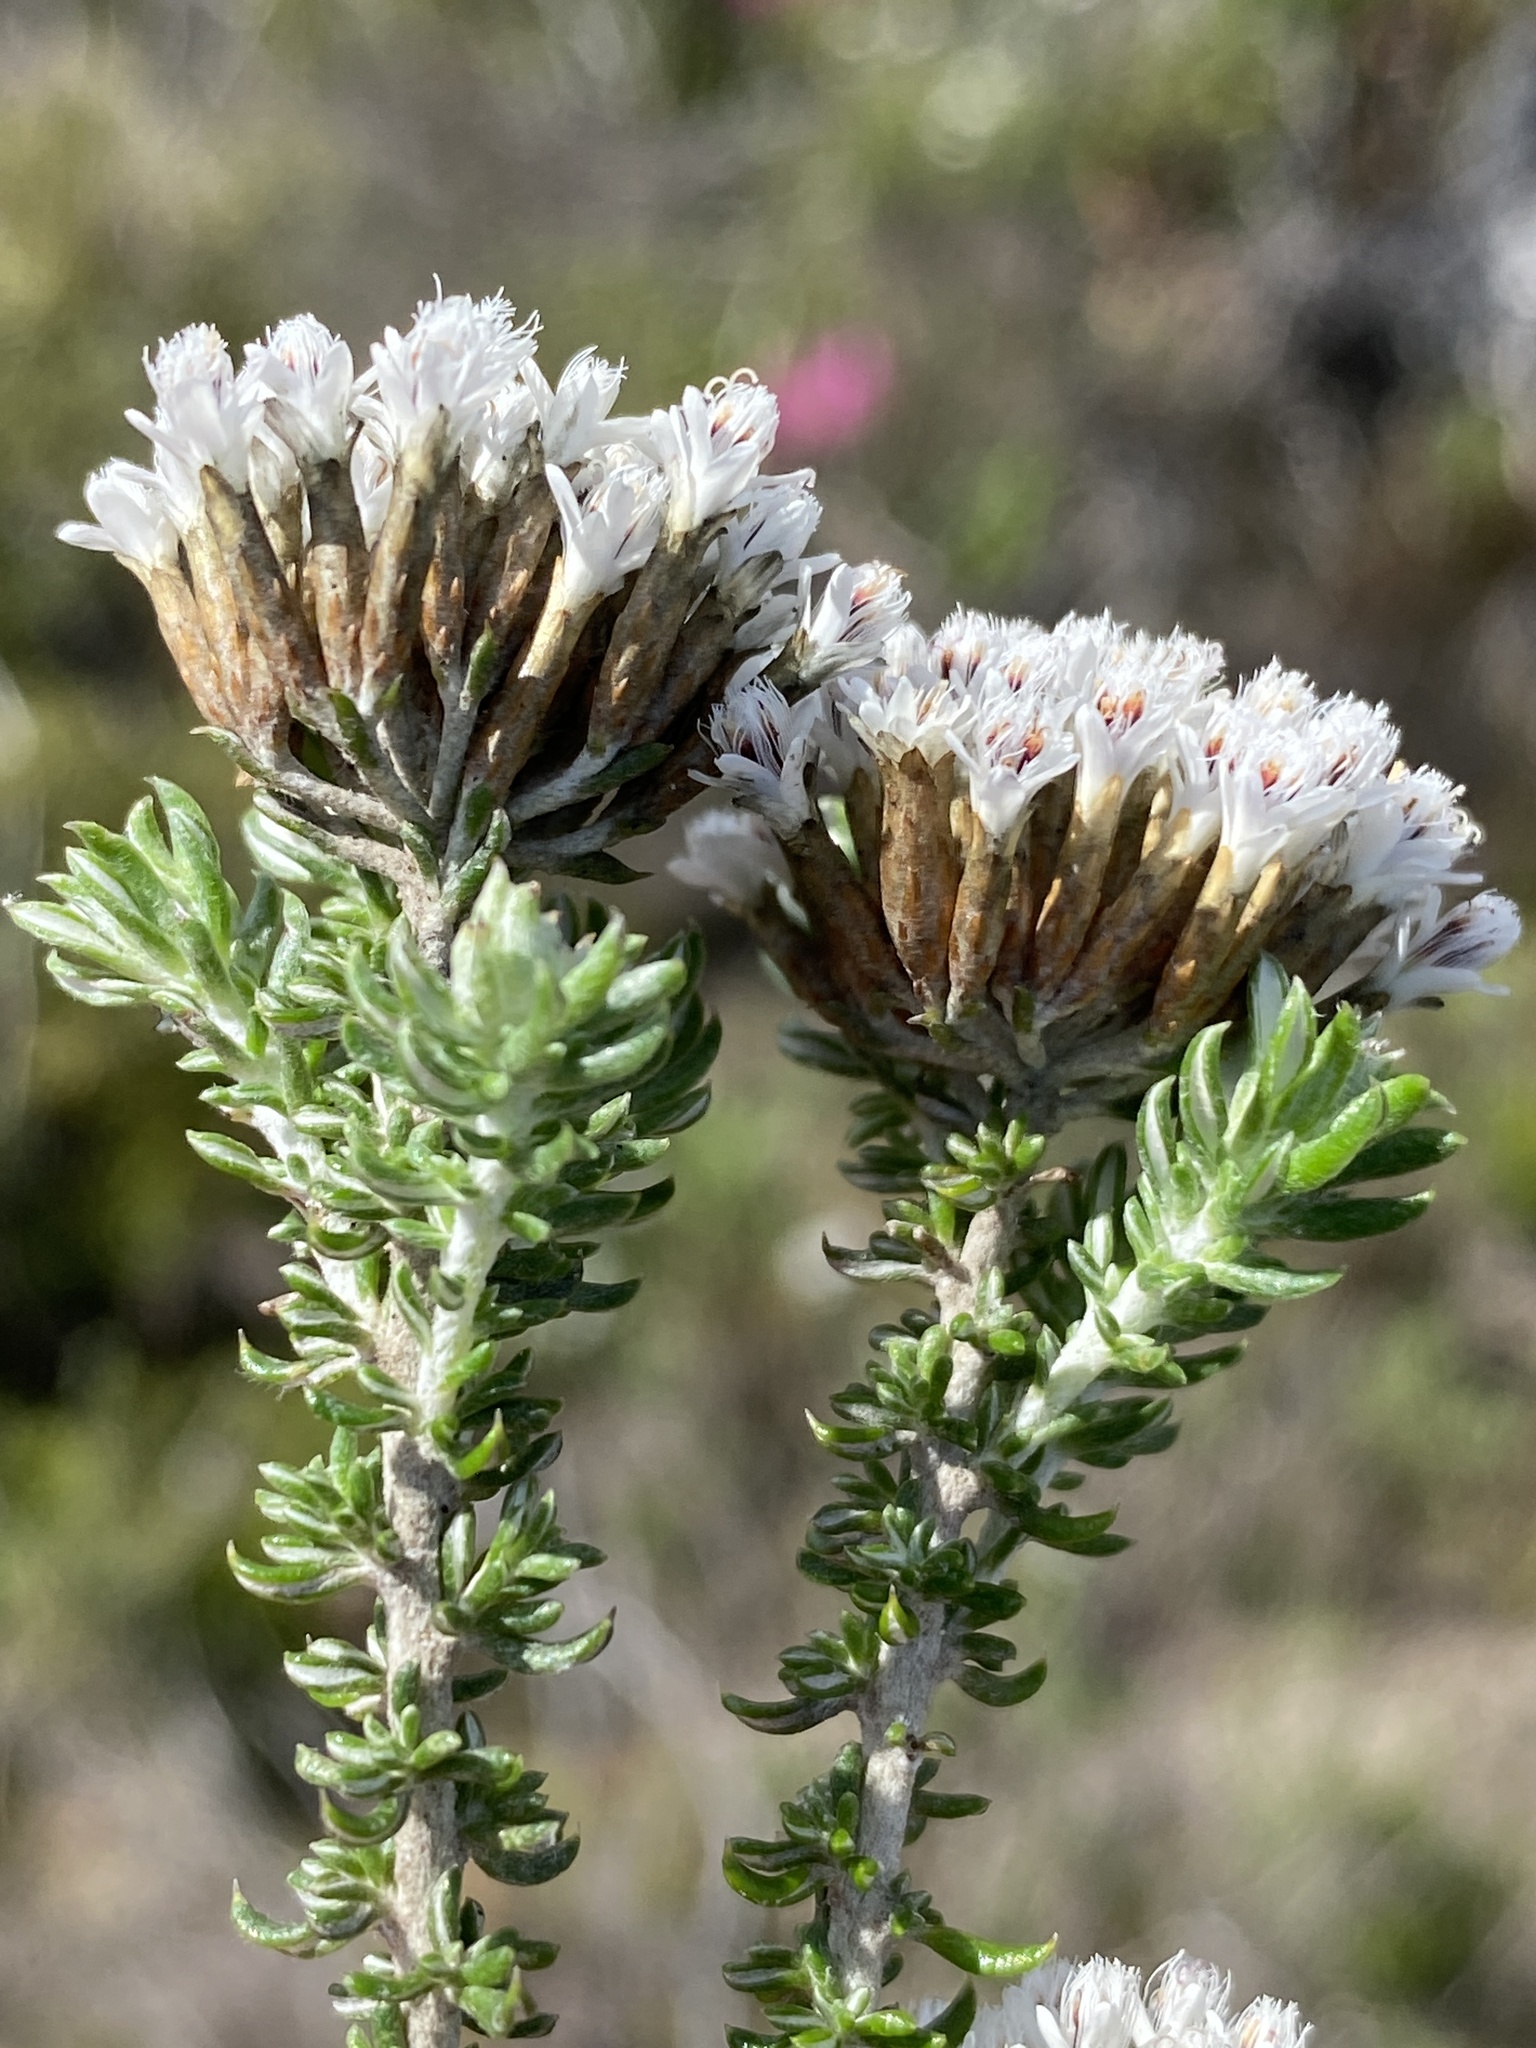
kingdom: Plantae
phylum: Tracheophyta
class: Magnoliopsida
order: Asterales
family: Asteraceae
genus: Metalasia
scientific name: Metalasia muricata
